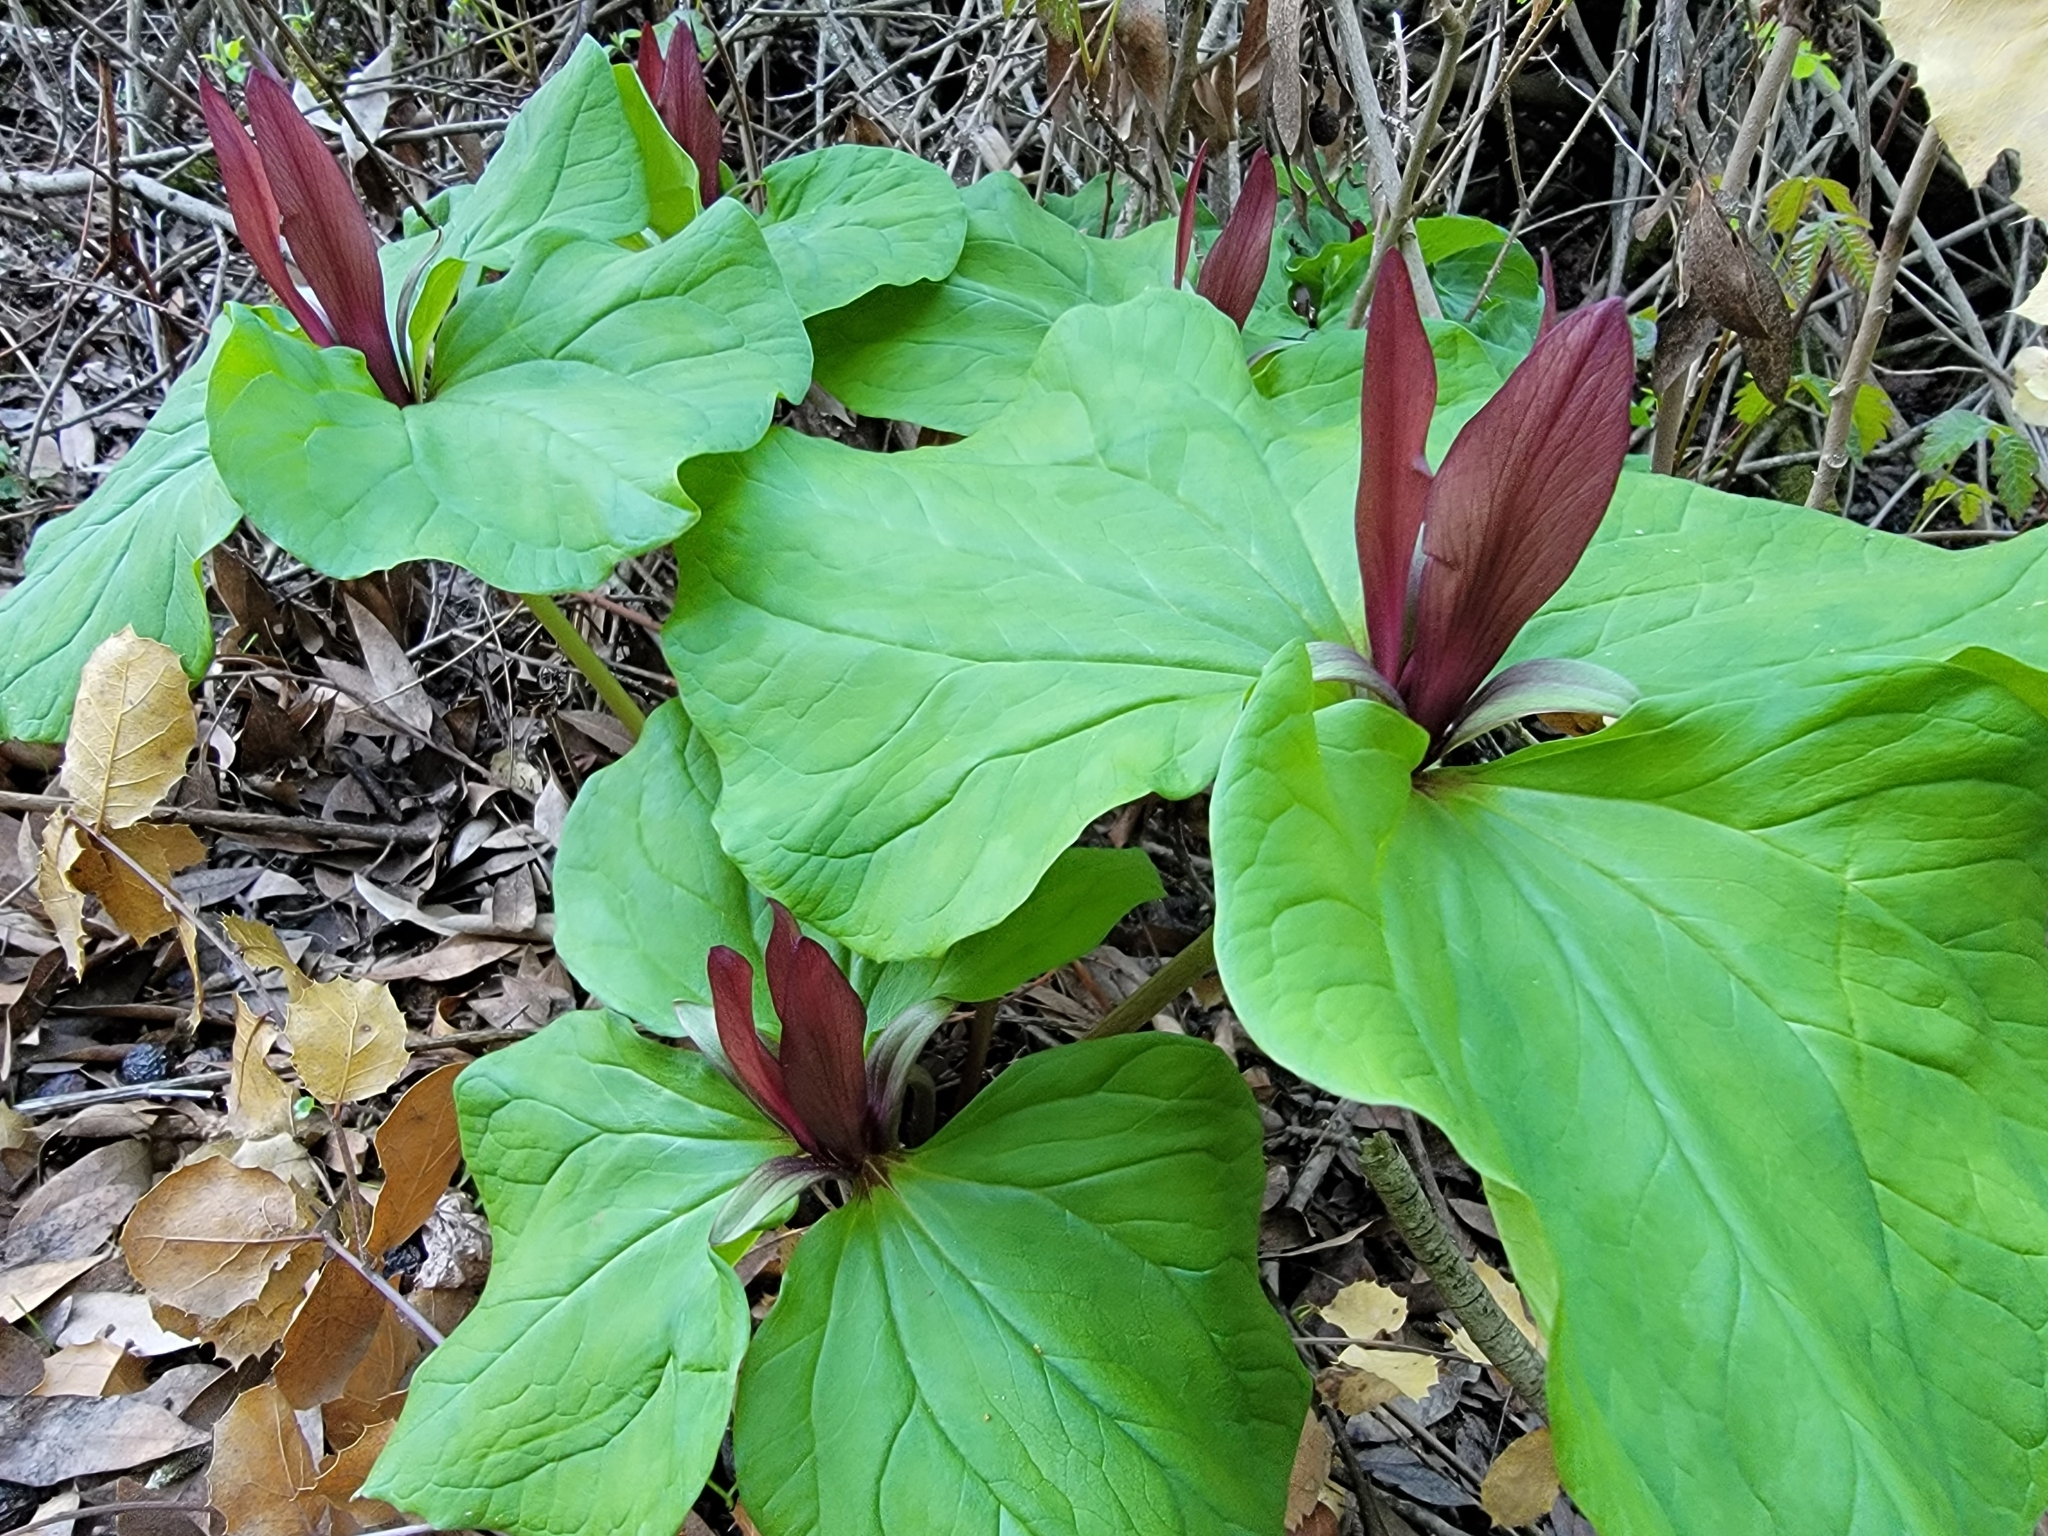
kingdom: Plantae
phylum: Tracheophyta
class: Liliopsida
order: Liliales
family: Melanthiaceae
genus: Trillium
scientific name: Trillium chloropetalum
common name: Giant trillium
